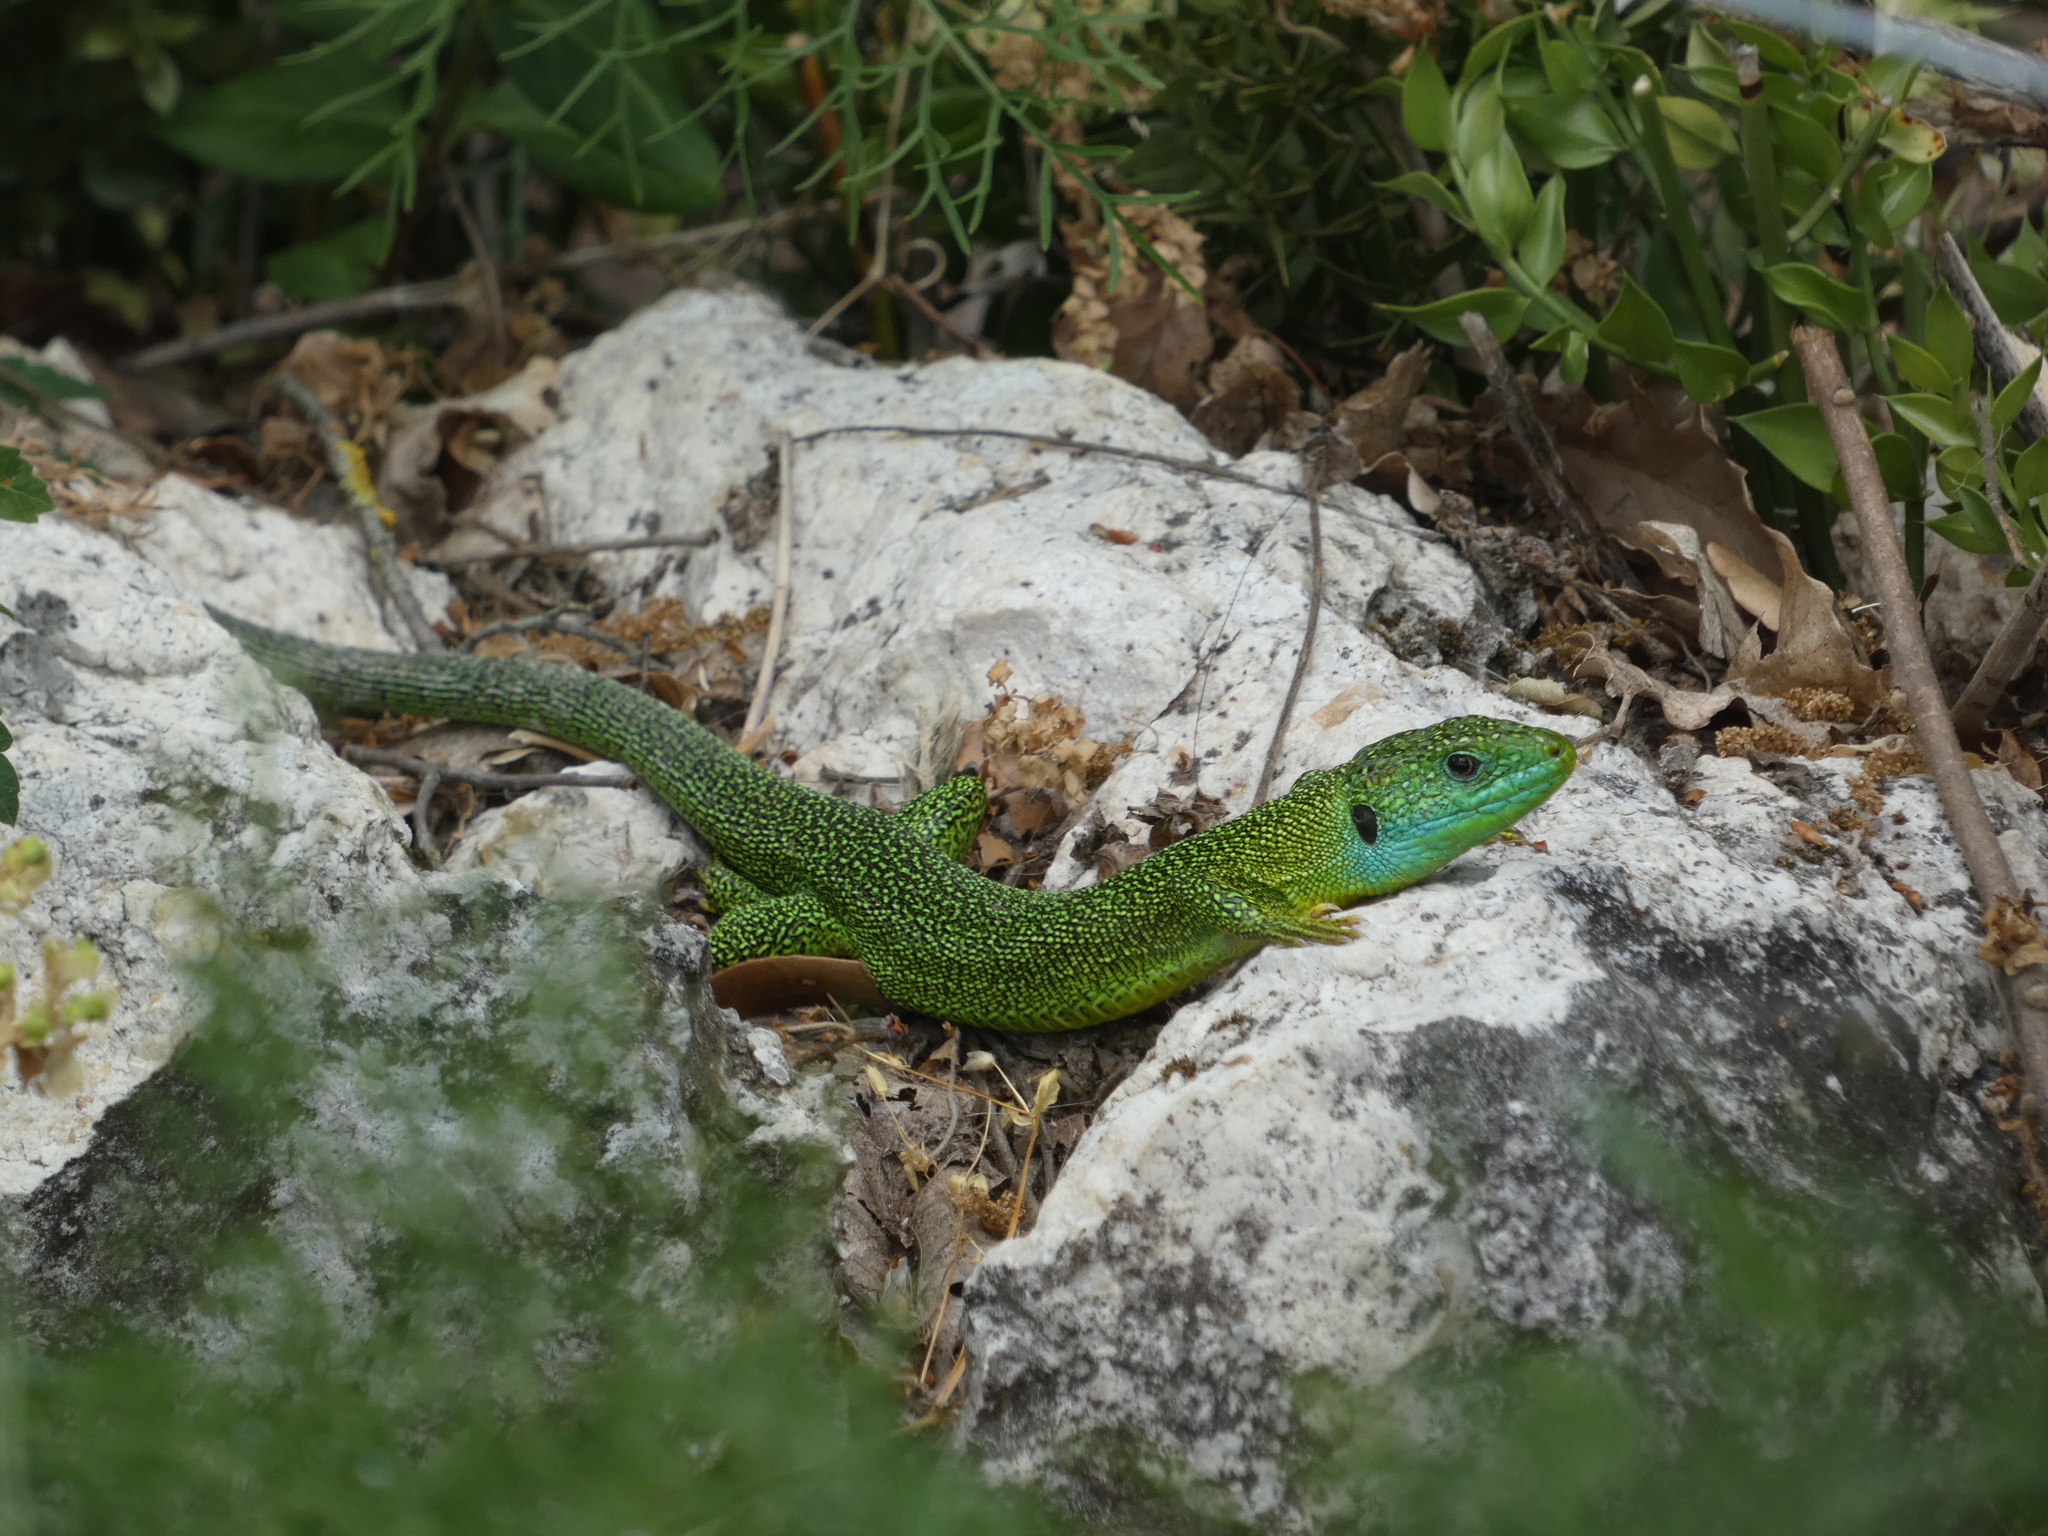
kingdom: Animalia
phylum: Chordata
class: Squamata
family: Lacertidae
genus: Lacerta
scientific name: Lacerta bilineata
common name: Western green lizard
